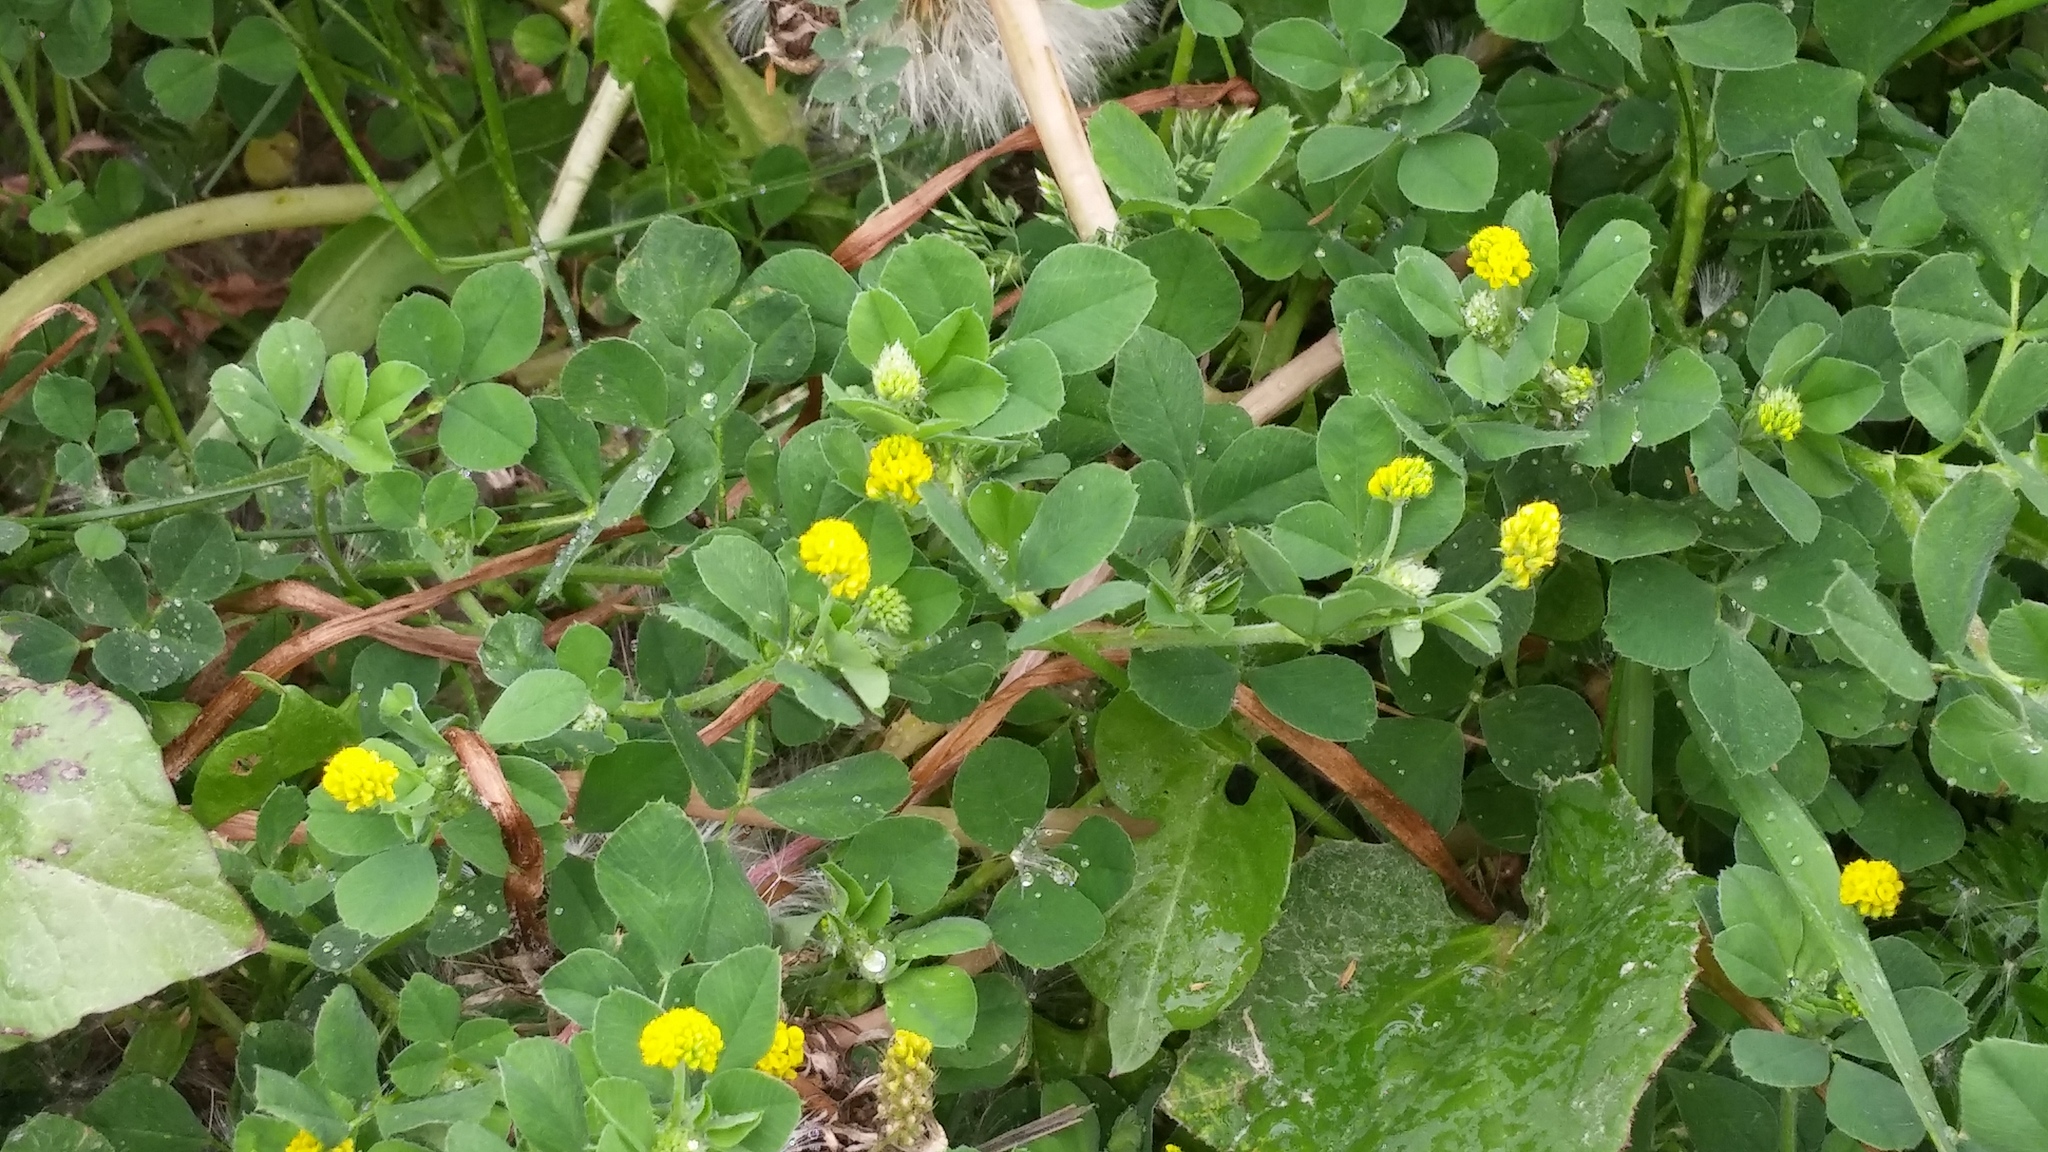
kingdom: Plantae
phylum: Tracheophyta
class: Magnoliopsida
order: Fabales
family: Fabaceae
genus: Medicago
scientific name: Medicago lupulina
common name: Black medick
